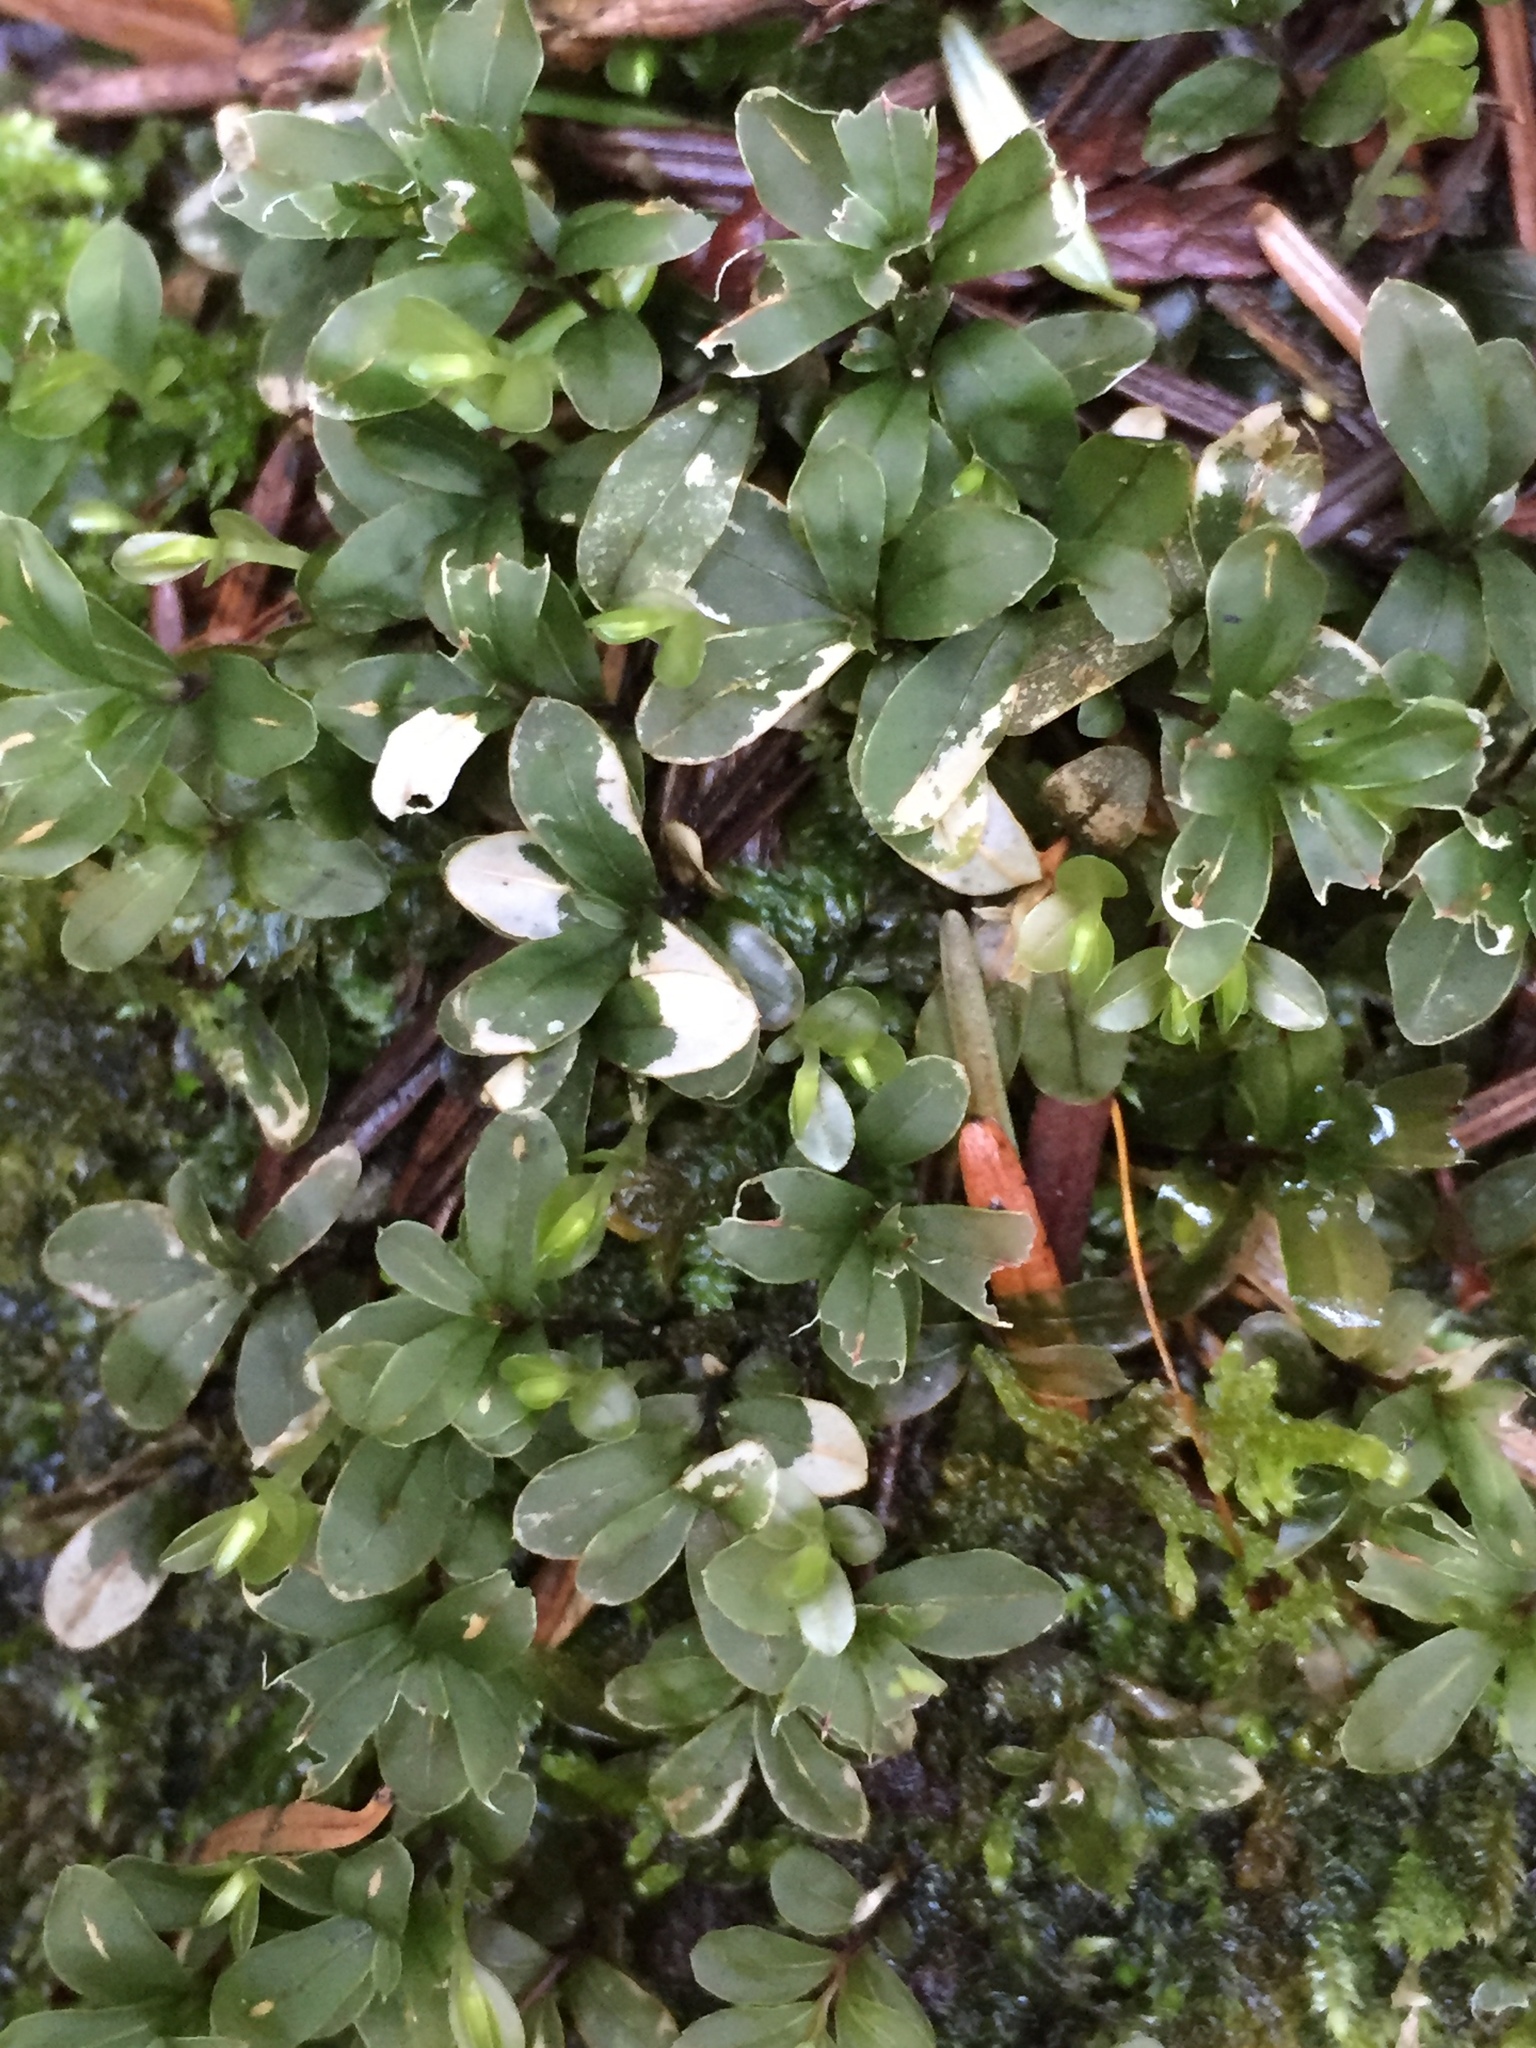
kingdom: Plantae
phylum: Bryophyta
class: Bryopsida
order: Bryales
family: Mniaceae
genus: Rhizomnium
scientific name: Rhizomnium glabrescens
